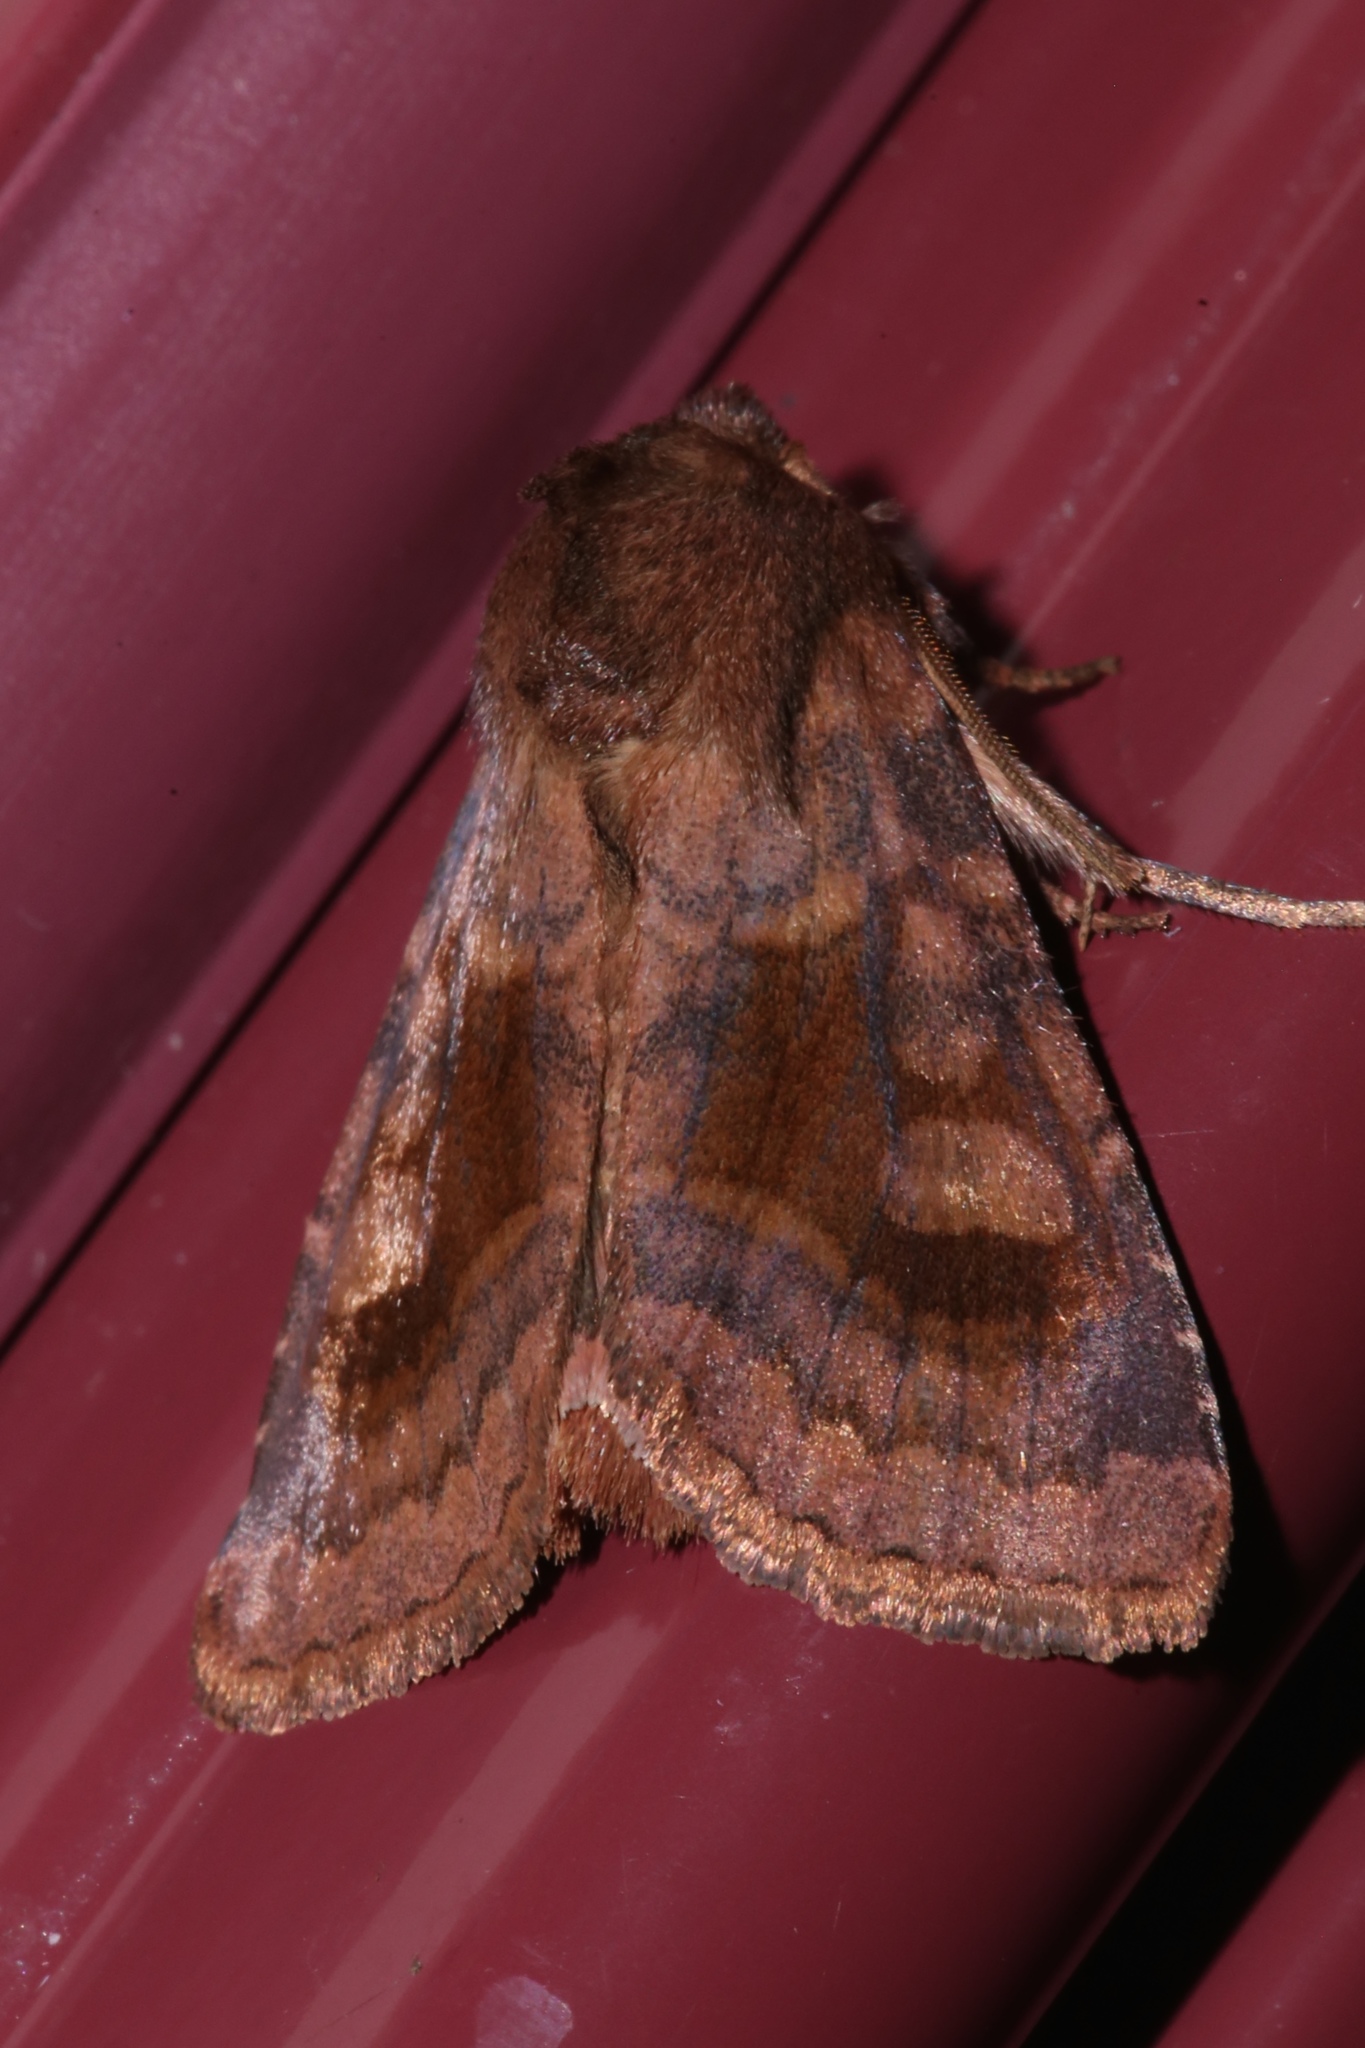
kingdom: Animalia
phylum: Arthropoda
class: Insecta
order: Lepidoptera
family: Noctuidae
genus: Nephelodes
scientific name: Nephelodes minians
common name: Bronzed cutworm
